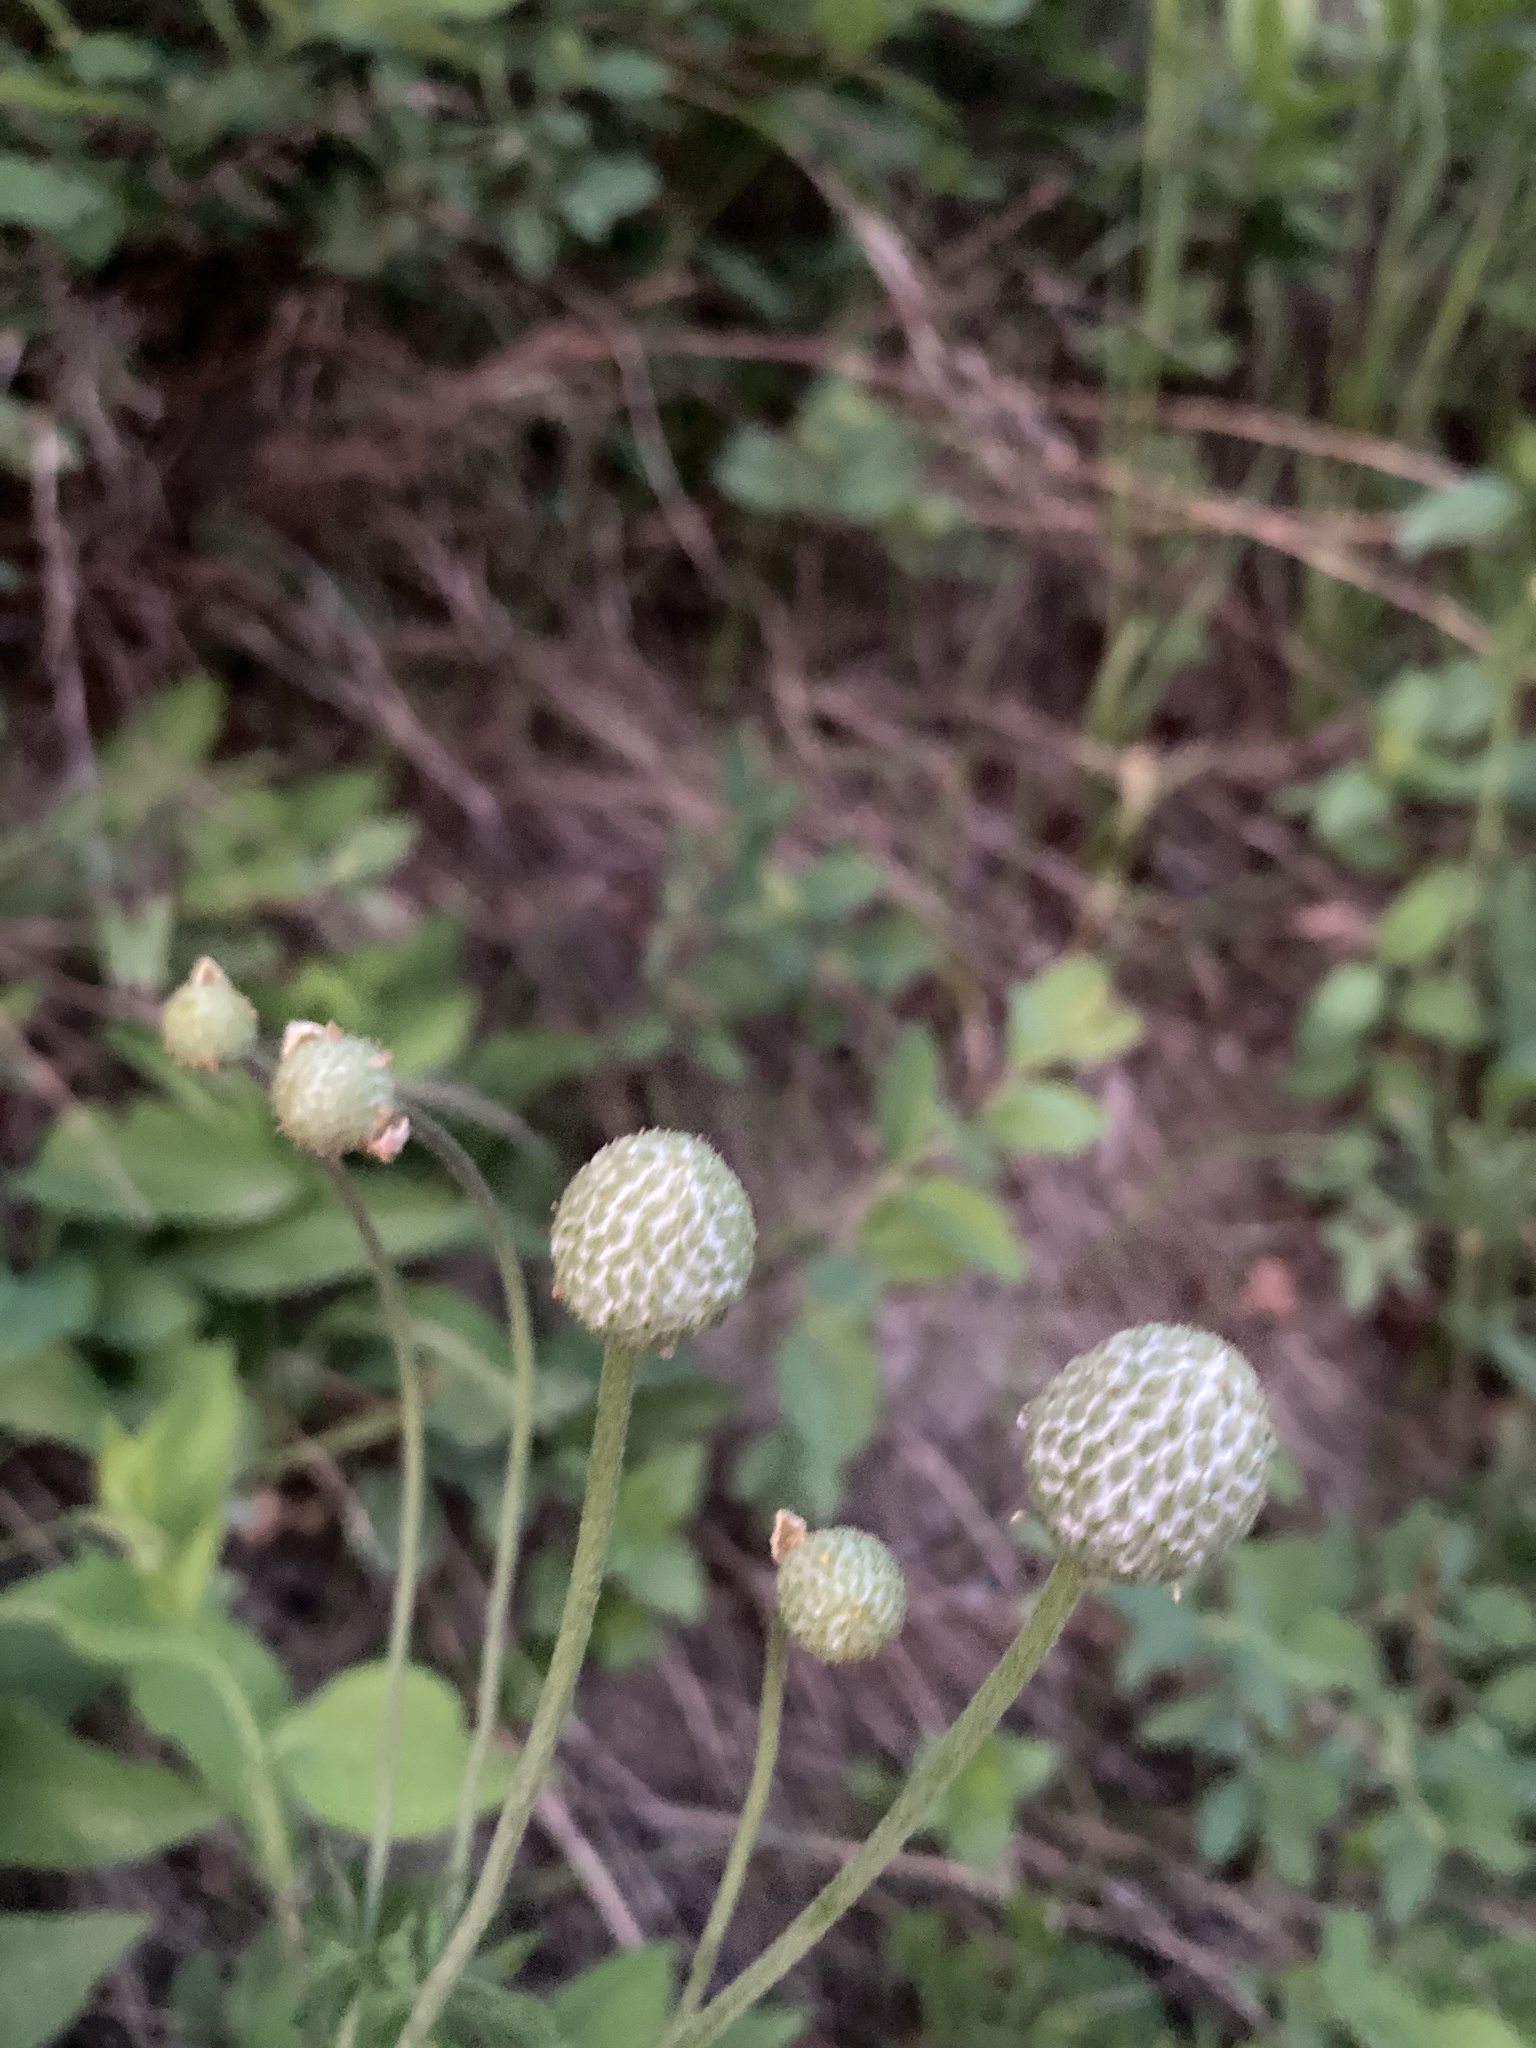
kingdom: Plantae
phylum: Tracheophyta
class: Magnoliopsida
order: Ranunculales
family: Ranunculaceae
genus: Anemone
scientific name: Anemone multifida
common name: Bird's-foot anemone
